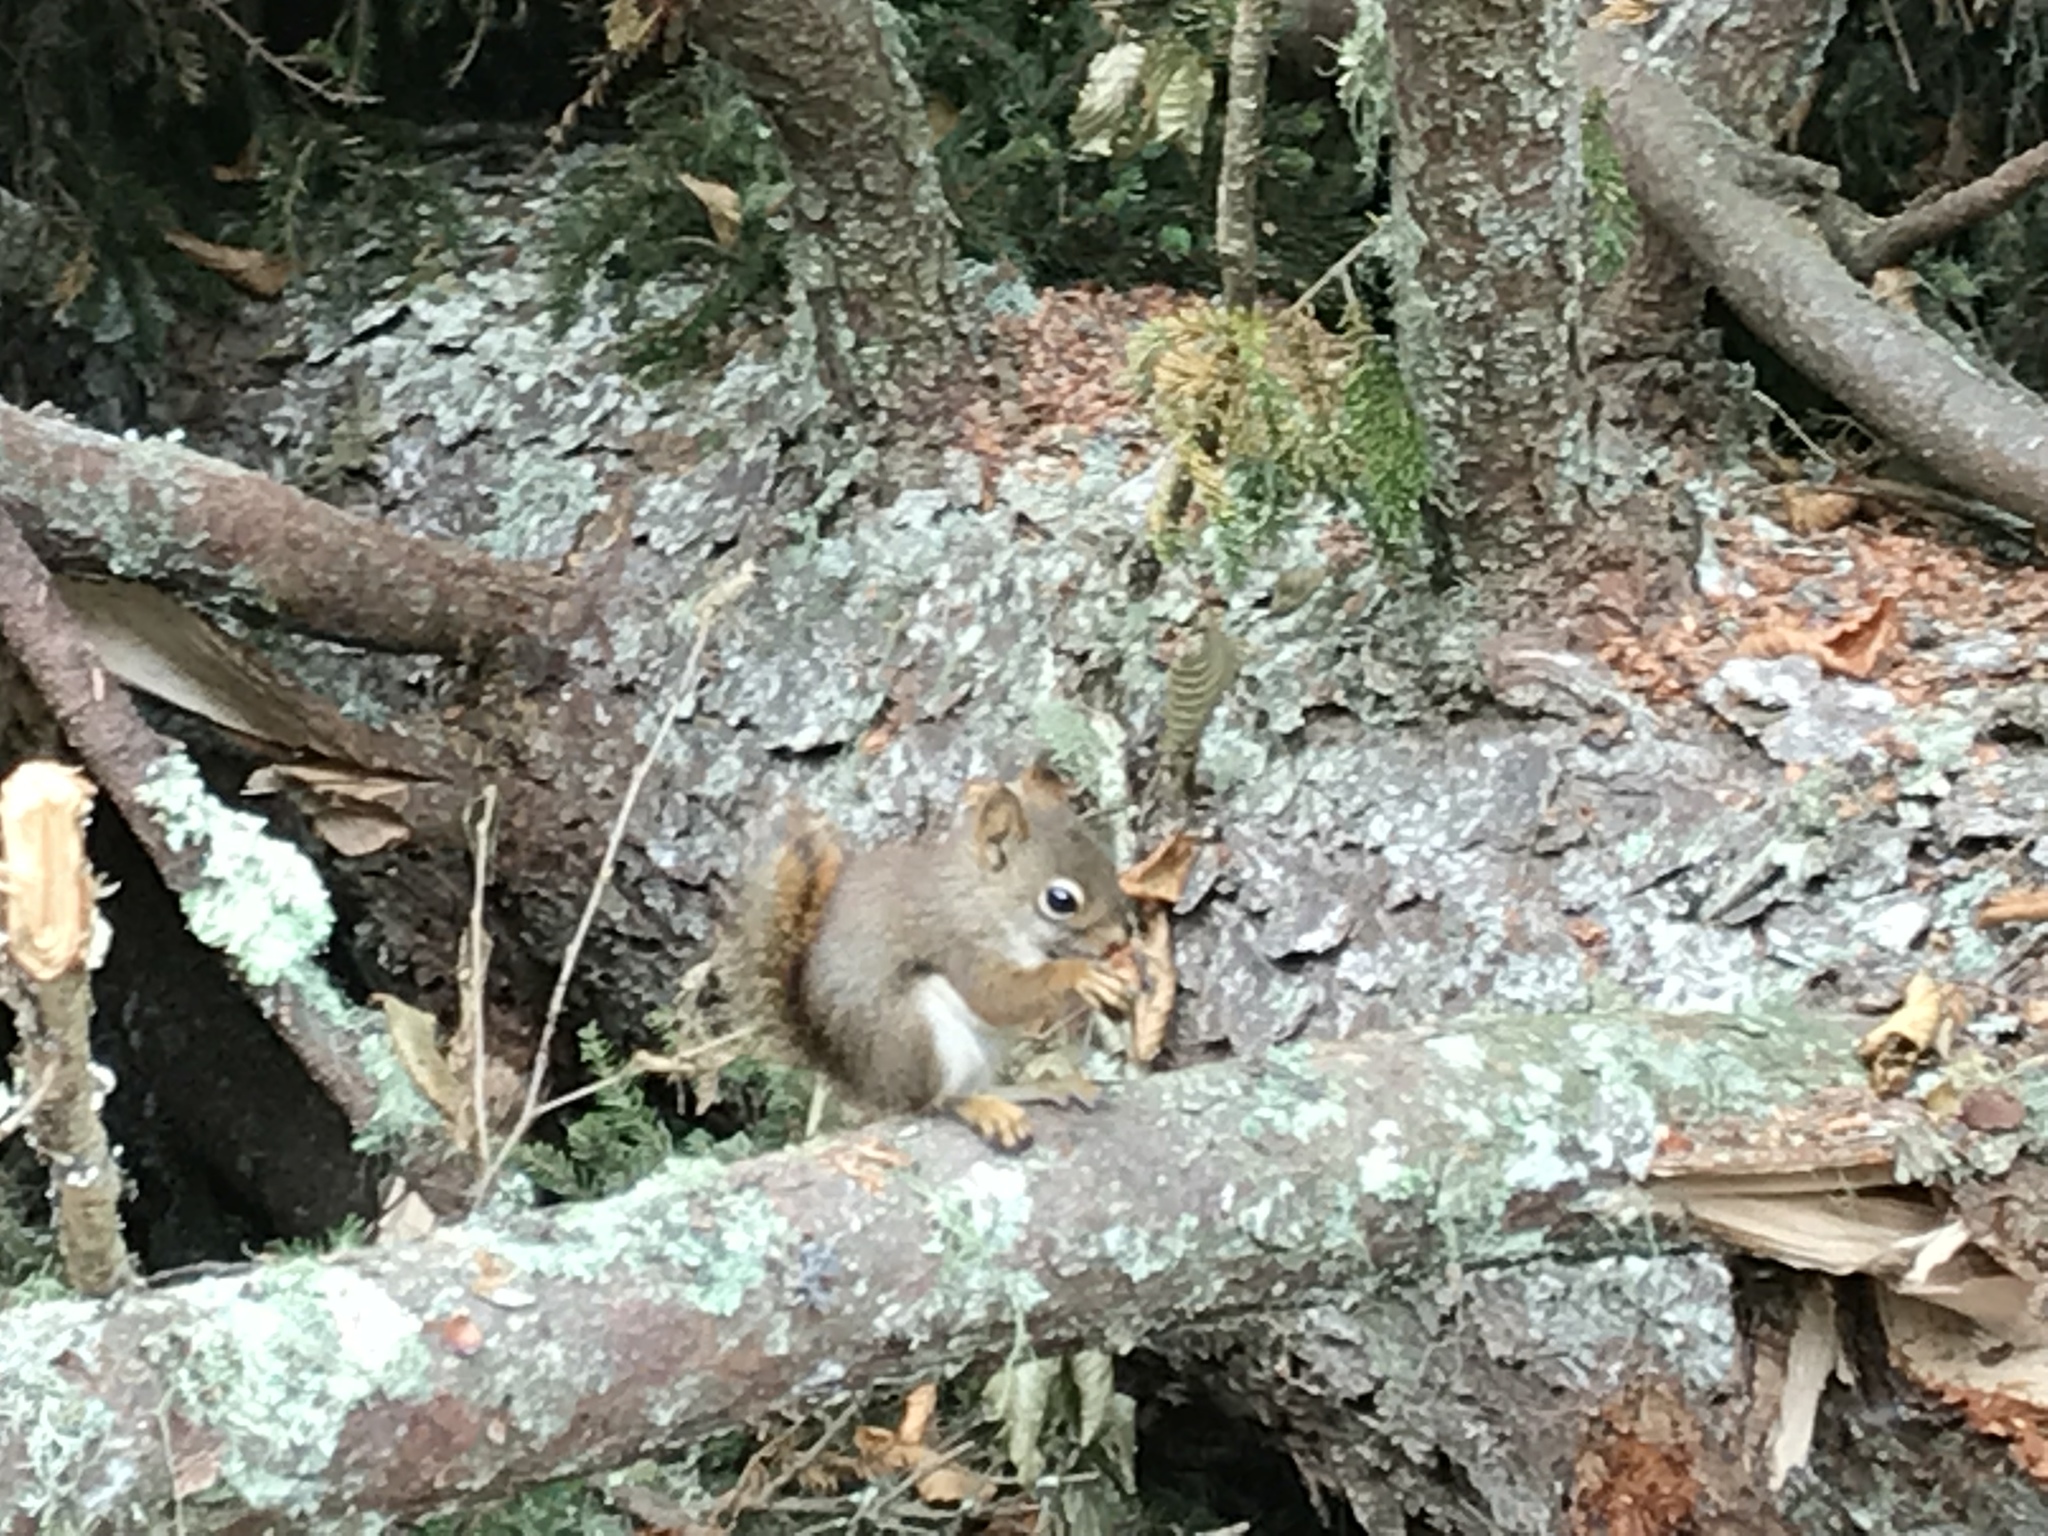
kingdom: Animalia
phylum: Chordata
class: Mammalia
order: Rodentia
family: Sciuridae
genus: Tamiasciurus
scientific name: Tamiasciurus hudsonicus
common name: Red squirrel
